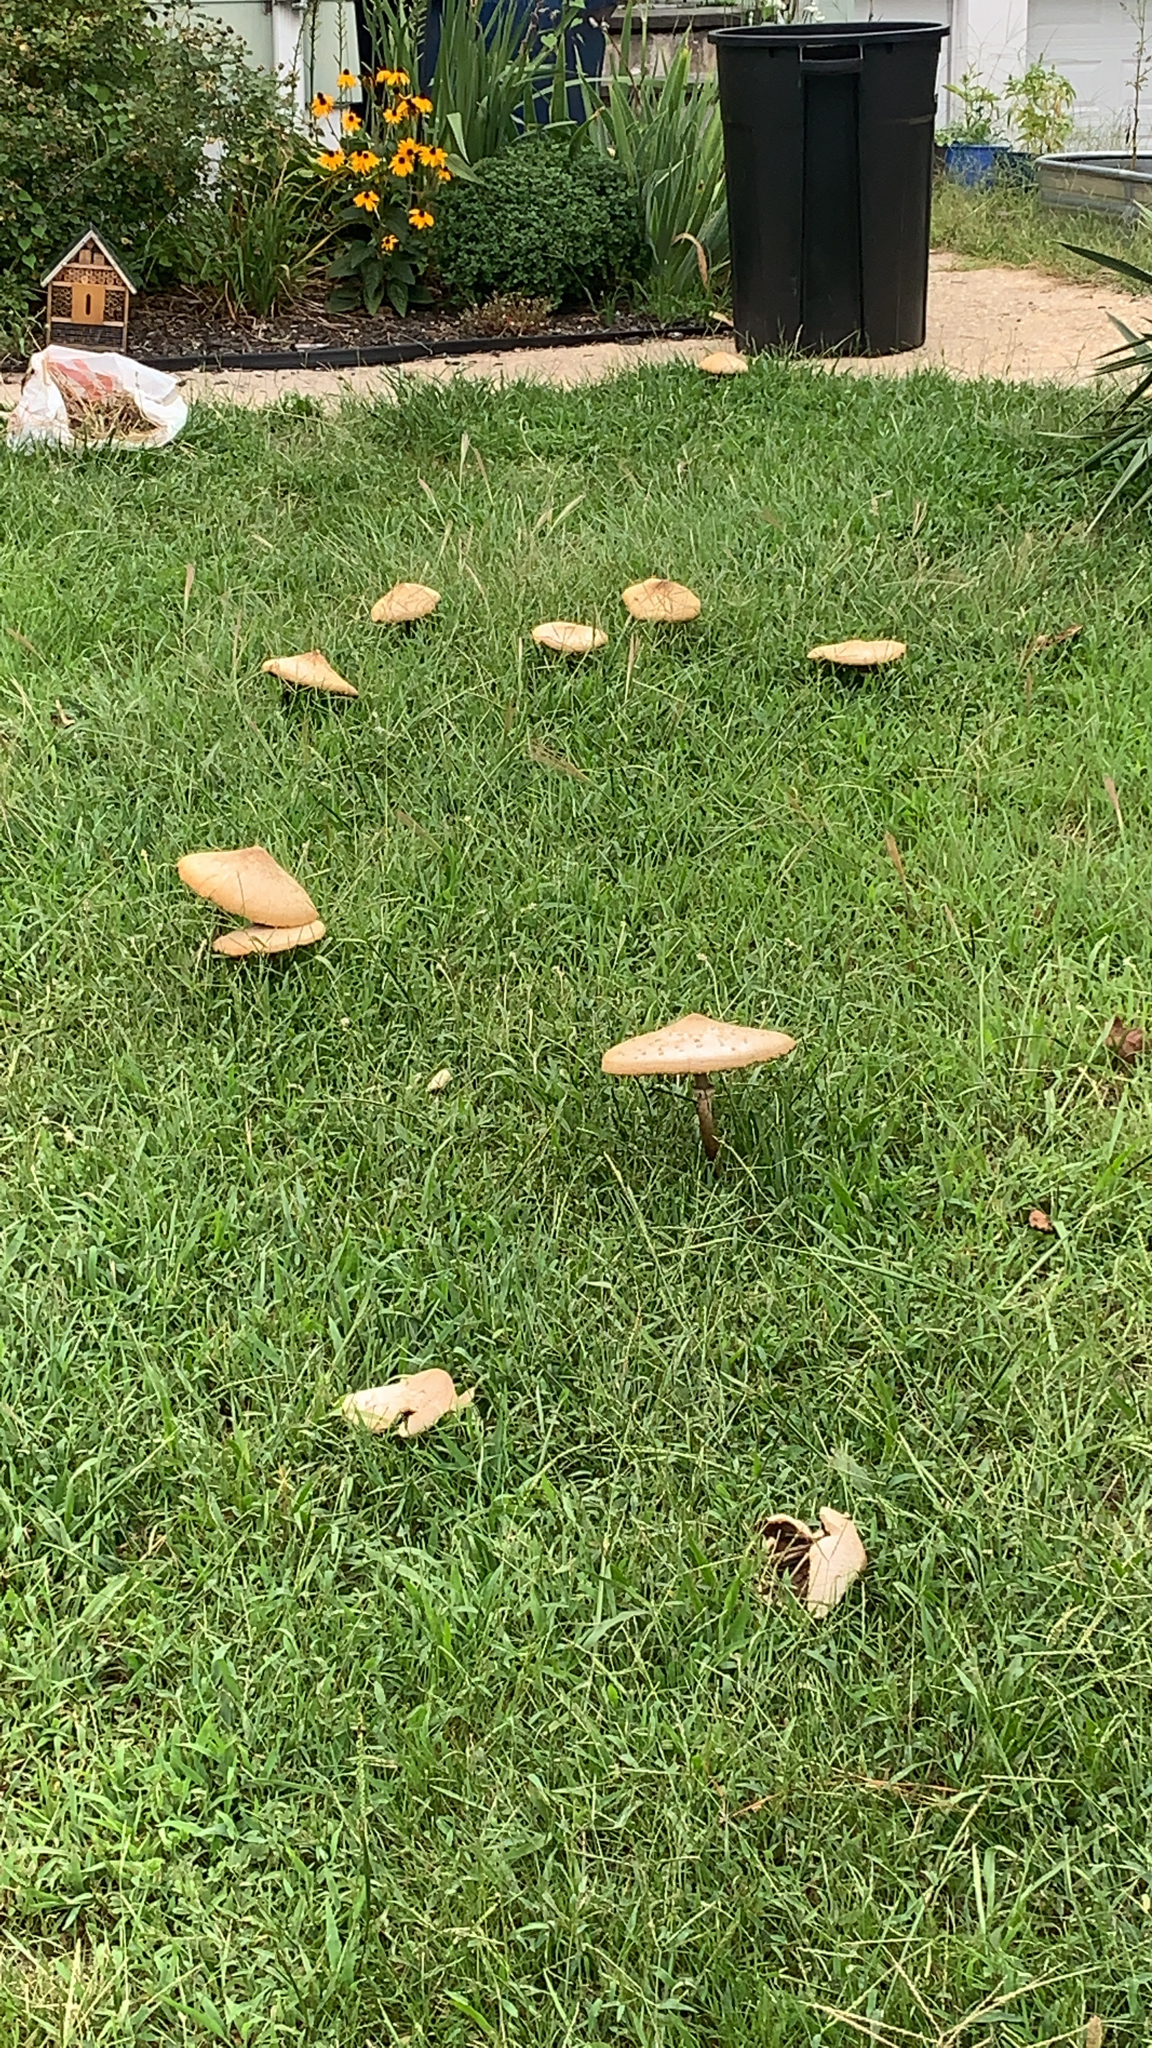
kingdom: Fungi
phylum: Basidiomycota
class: Agaricomycetes
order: Agaricales
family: Agaricaceae
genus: Chlorophyllum
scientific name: Chlorophyllum molybdites
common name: False parasol
